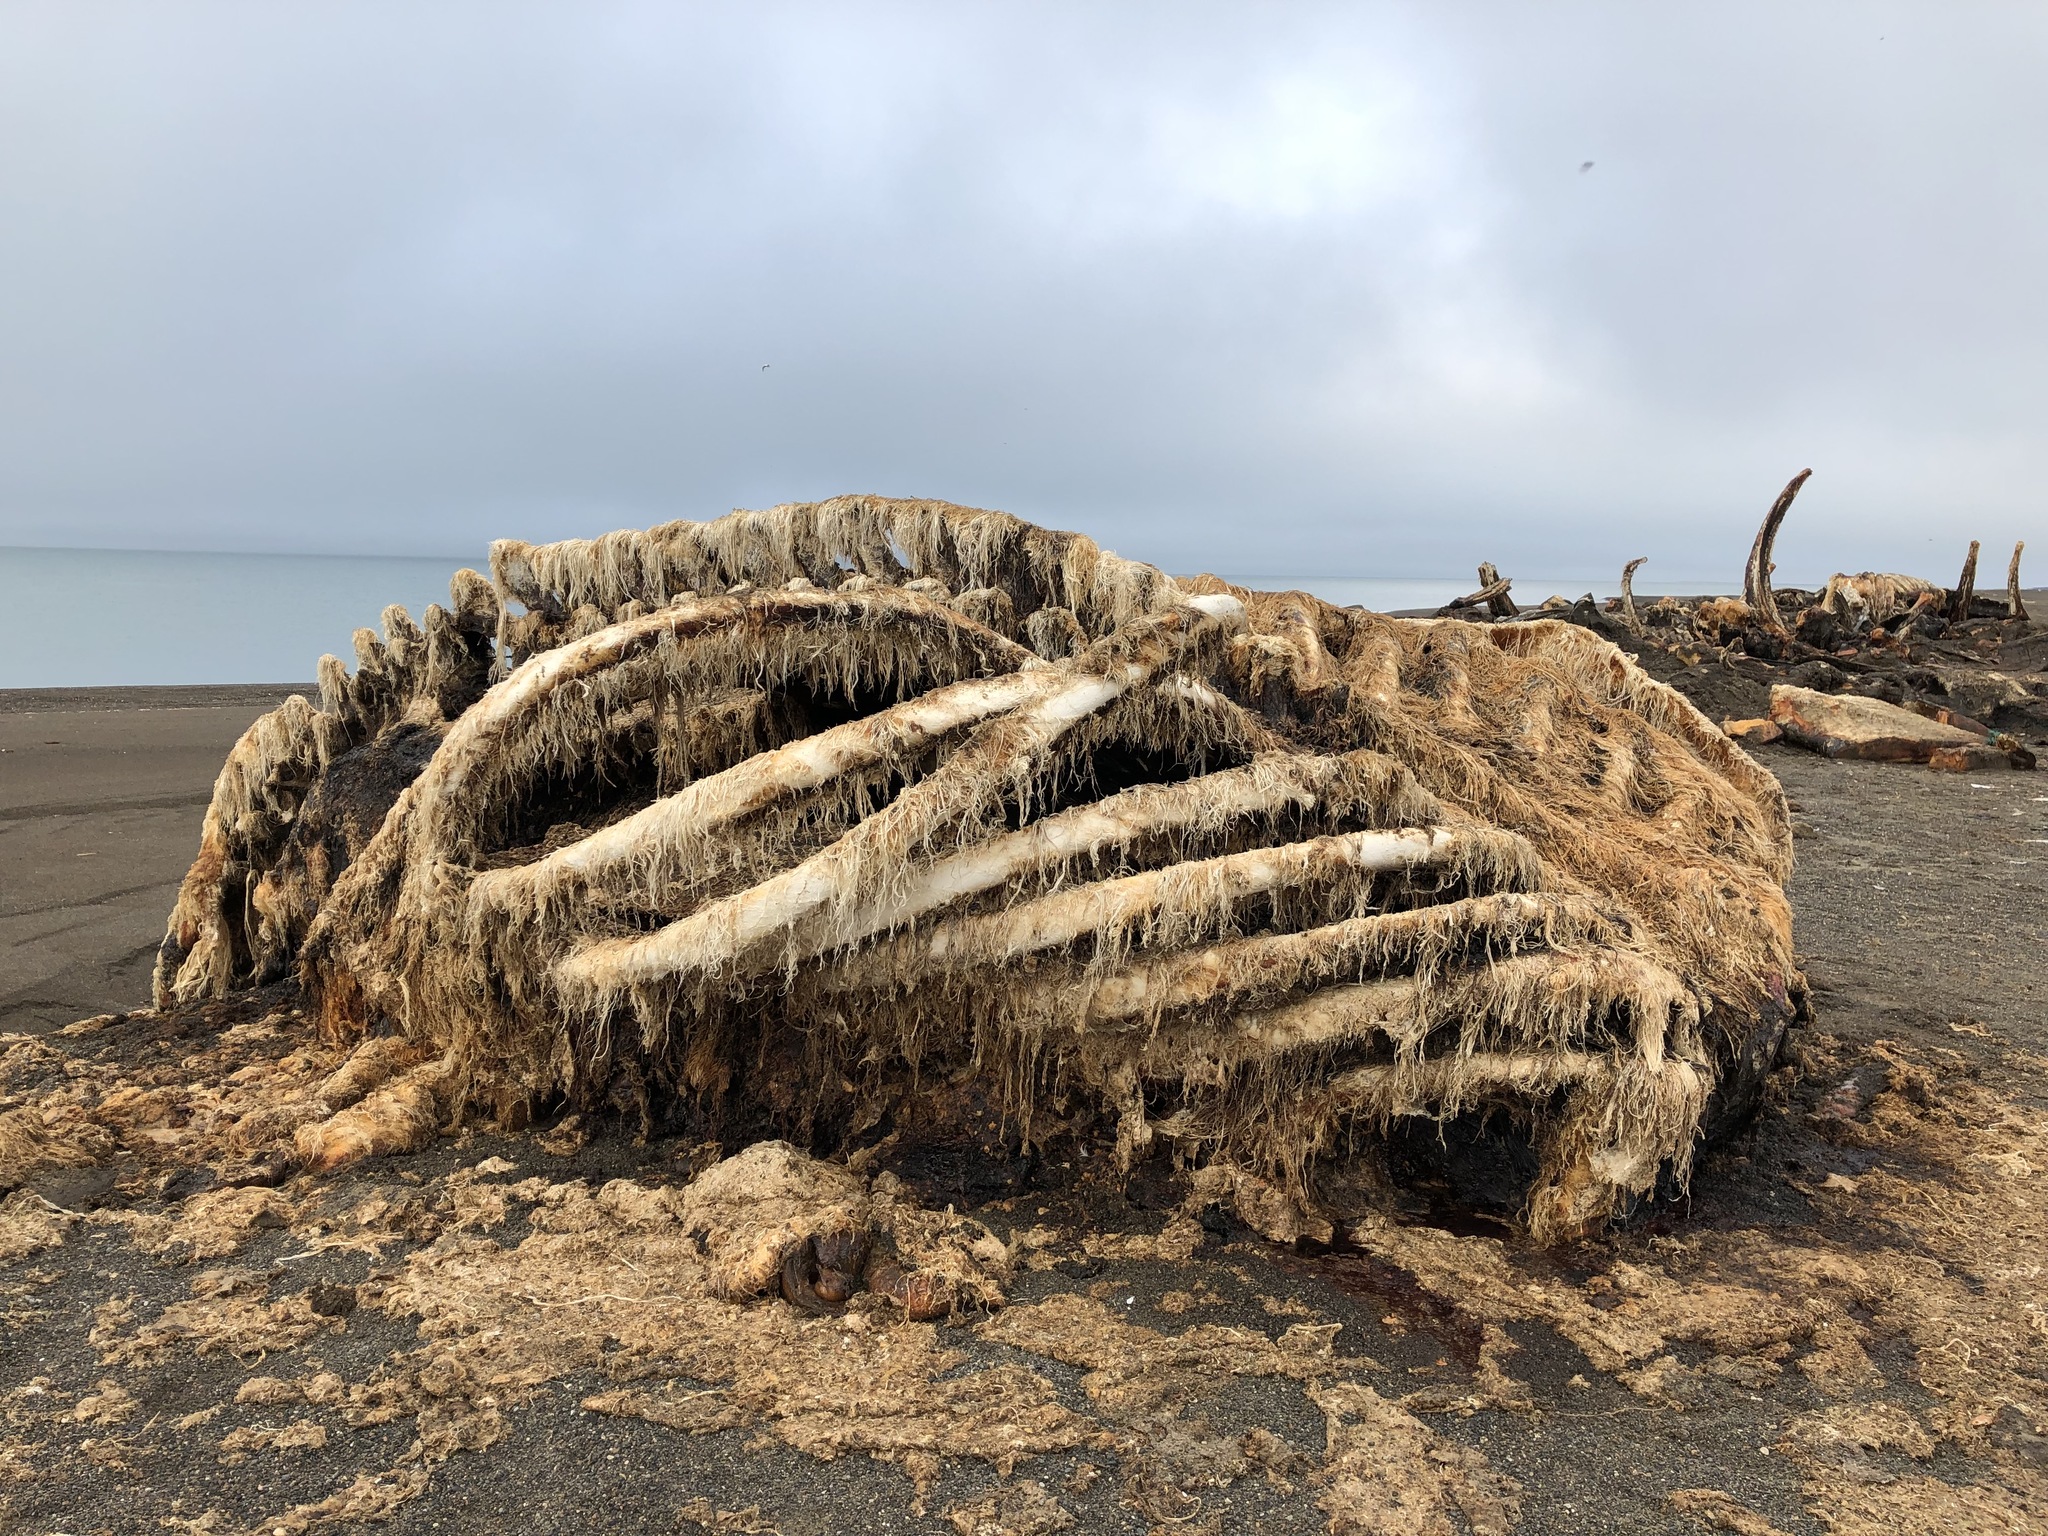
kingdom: Animalia
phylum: Chordata
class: Mammalia
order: Cetacea
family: Balaenidae
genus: Balaena
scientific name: Balaena mysticetus
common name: Bowhead whale
